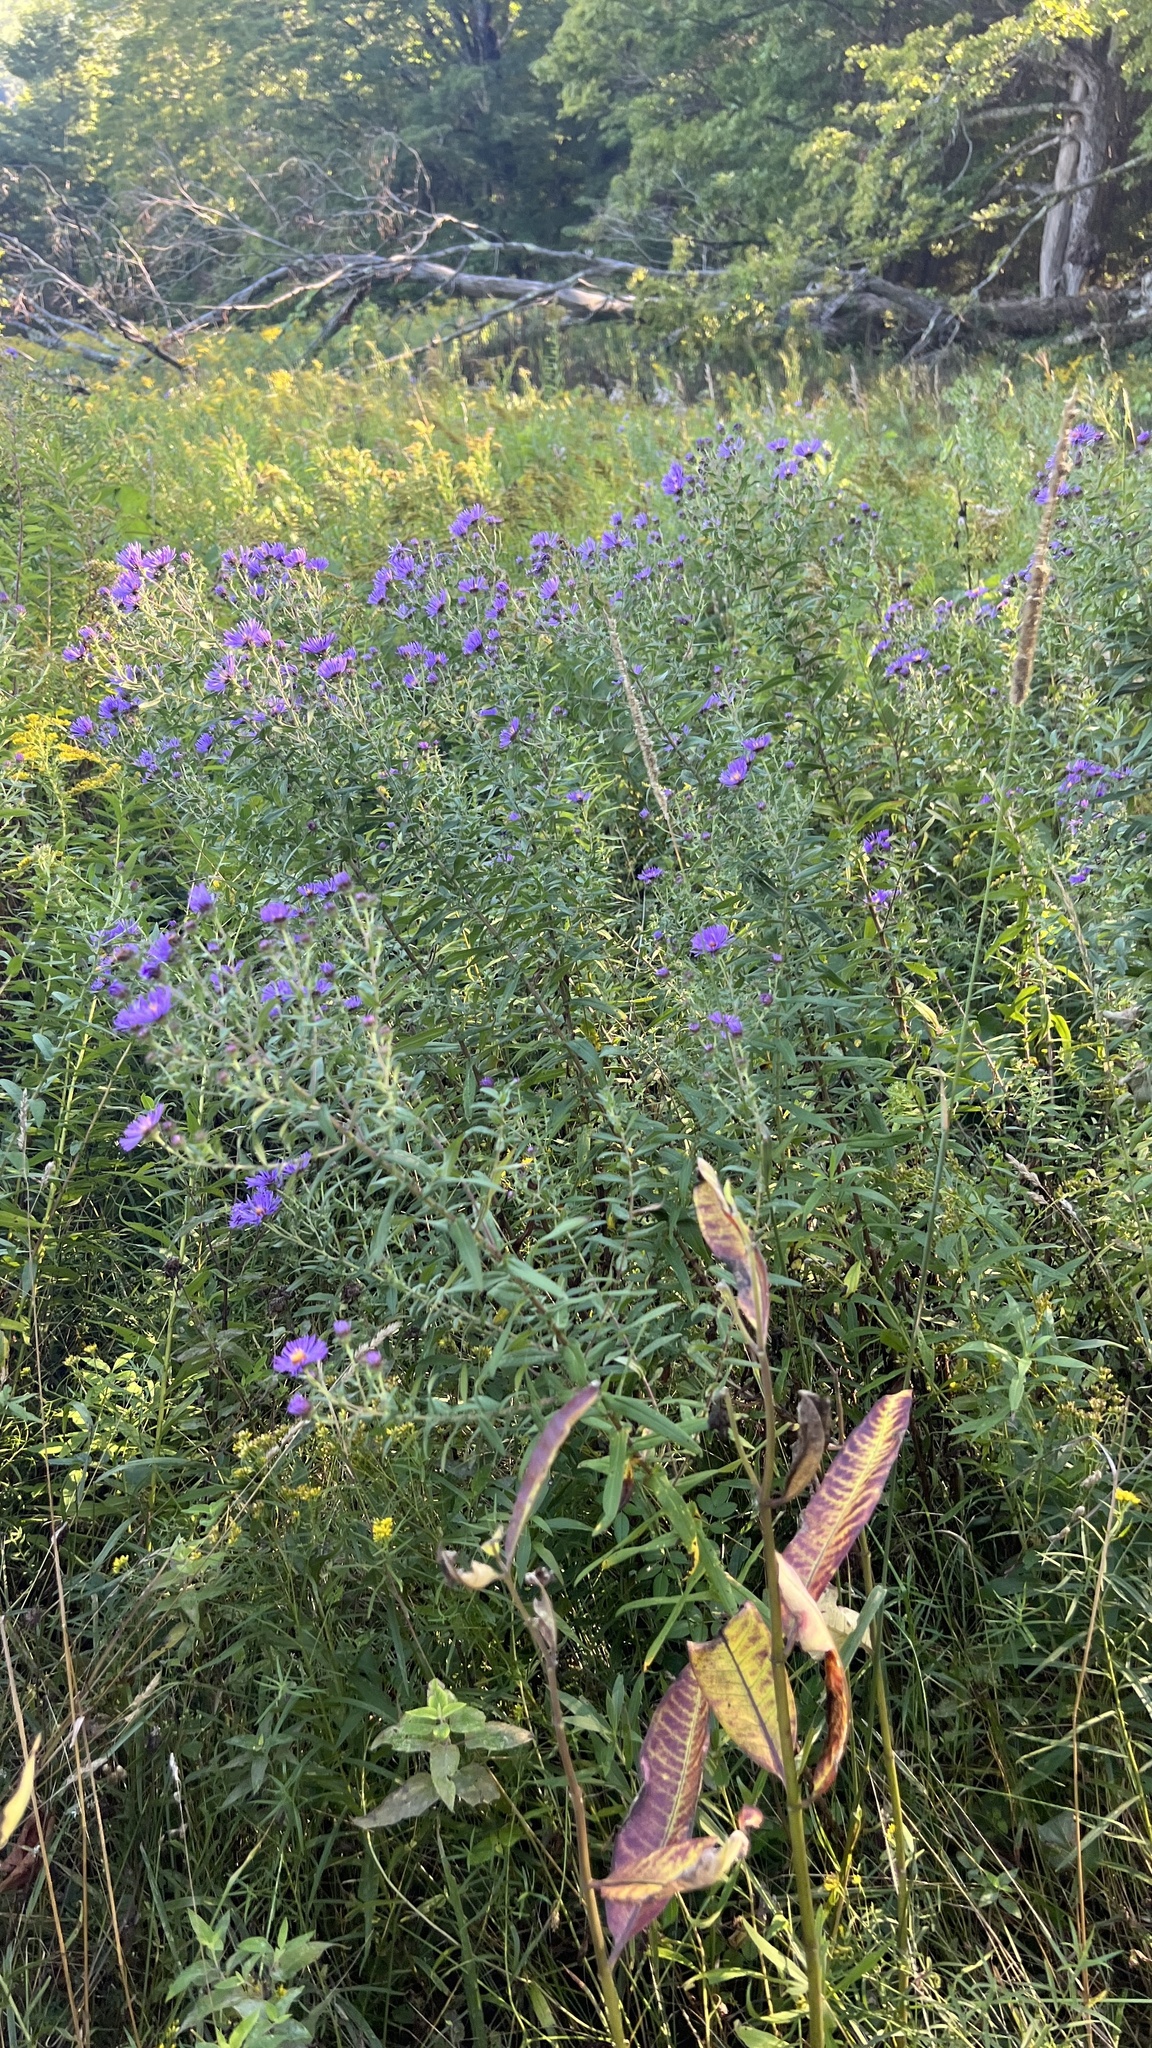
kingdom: Plantae
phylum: Tracheophyta
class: Magnoliopsida
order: Asterales
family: Asteraceae
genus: Symphyotrichum
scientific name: Symphyotrichum novae-angliae
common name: Michaelmas daisy
